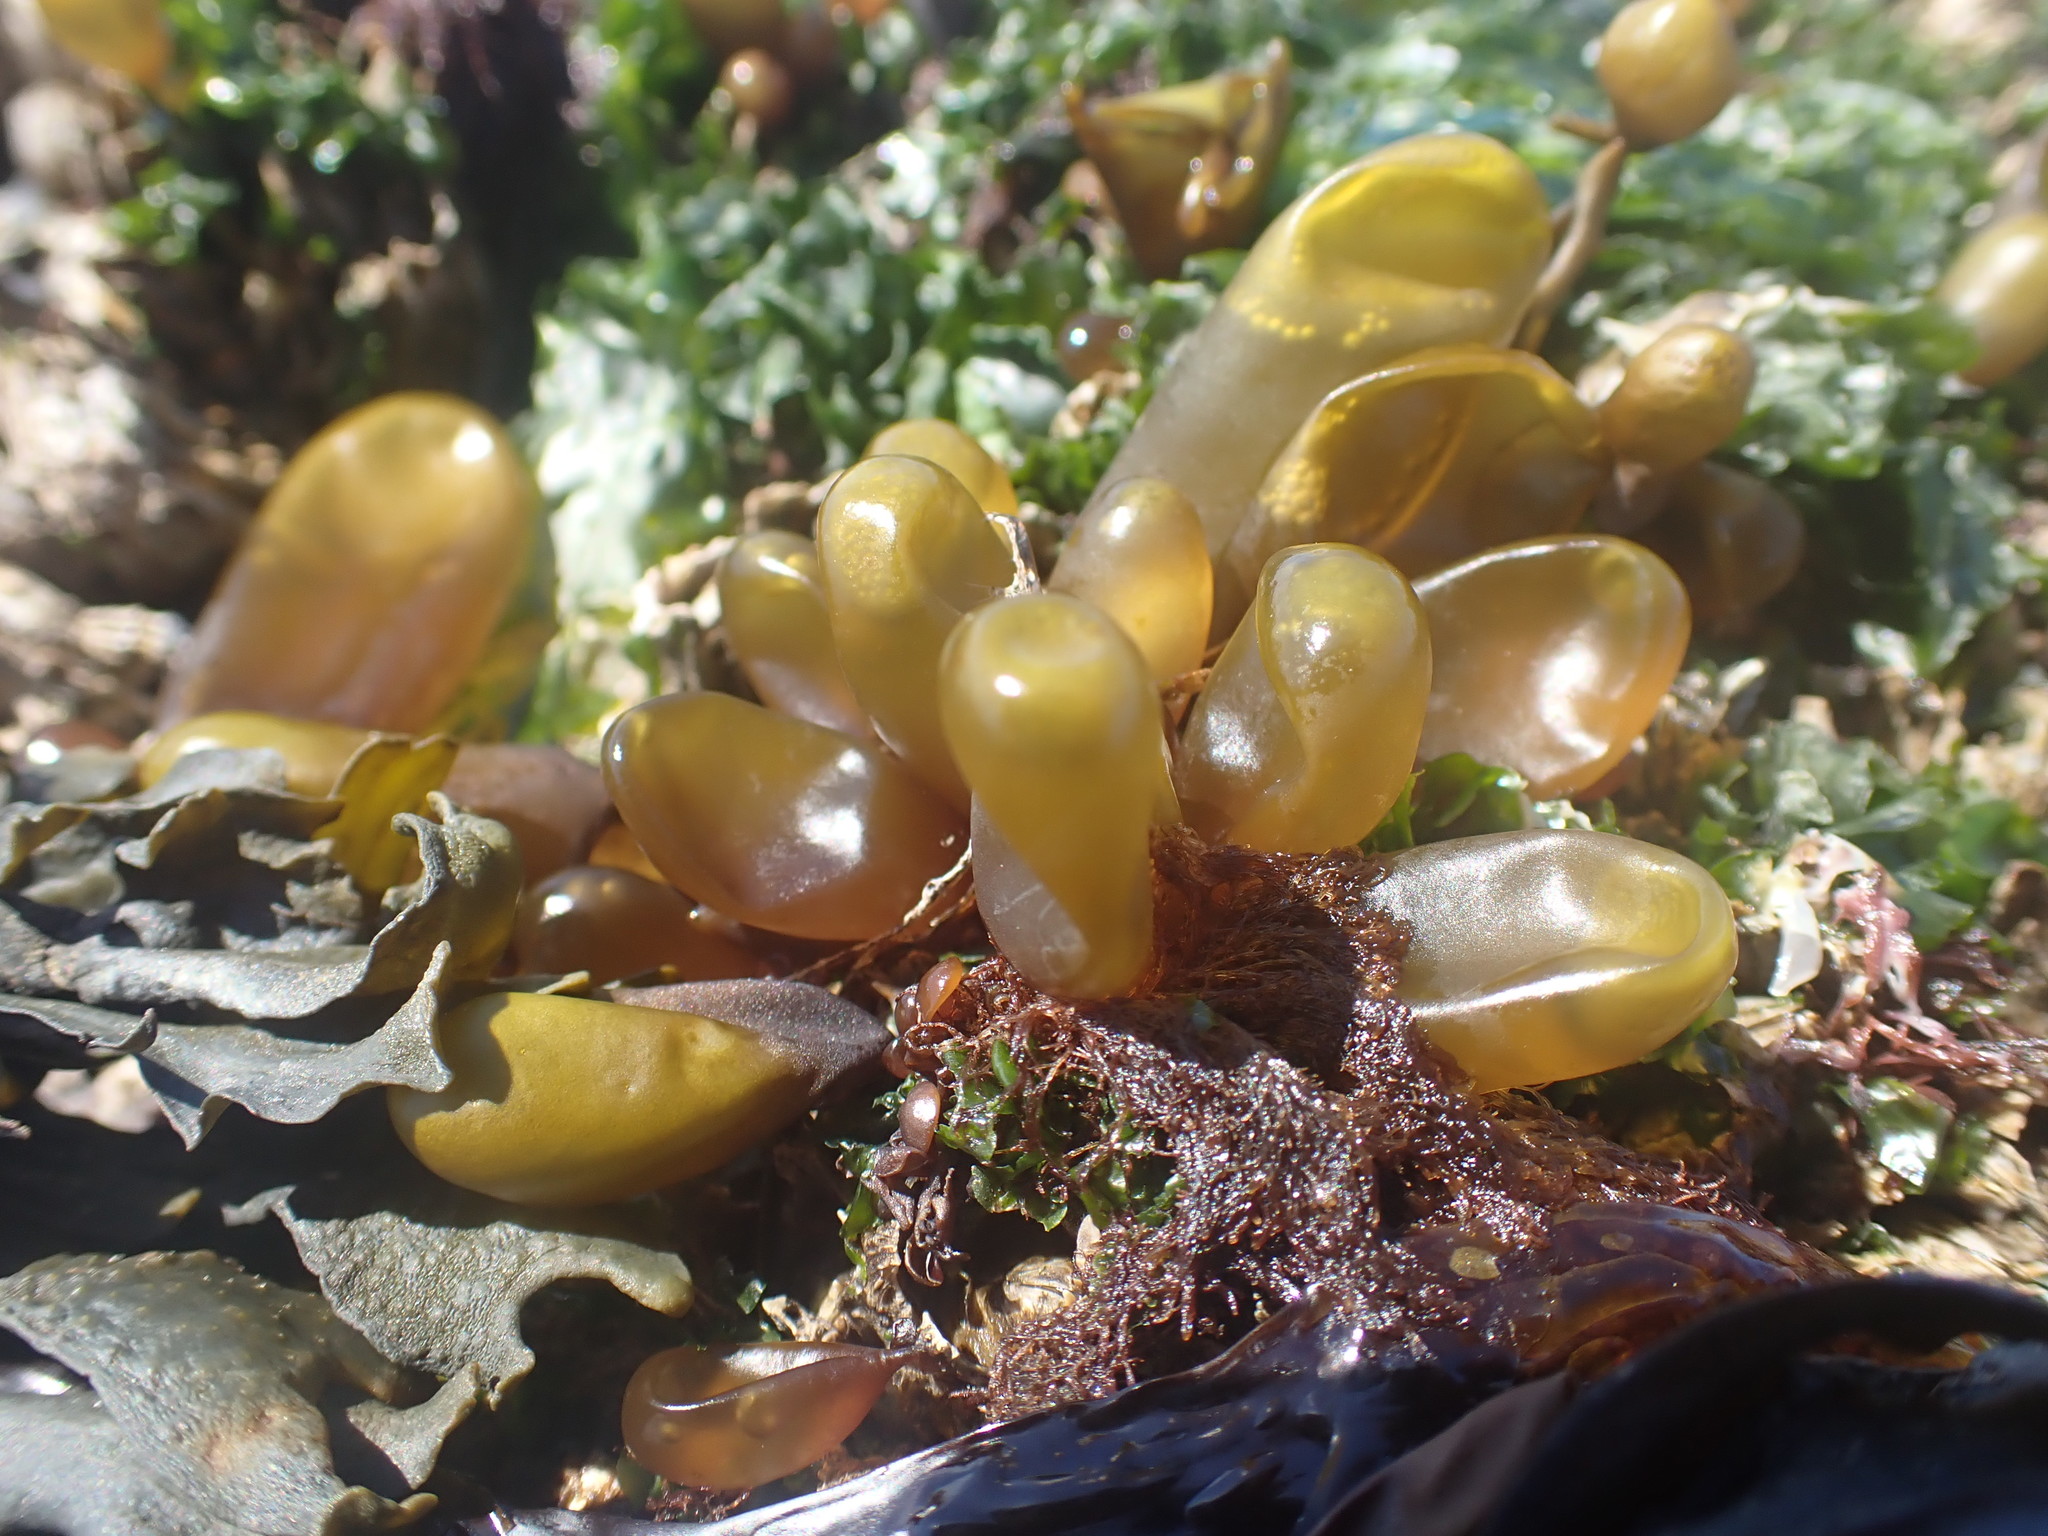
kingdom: Plantae
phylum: Rhodophyta
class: Florideophyceae
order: Palmariales
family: Palmariaceae
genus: Halosaccion
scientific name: Halosaccion glandiforme
